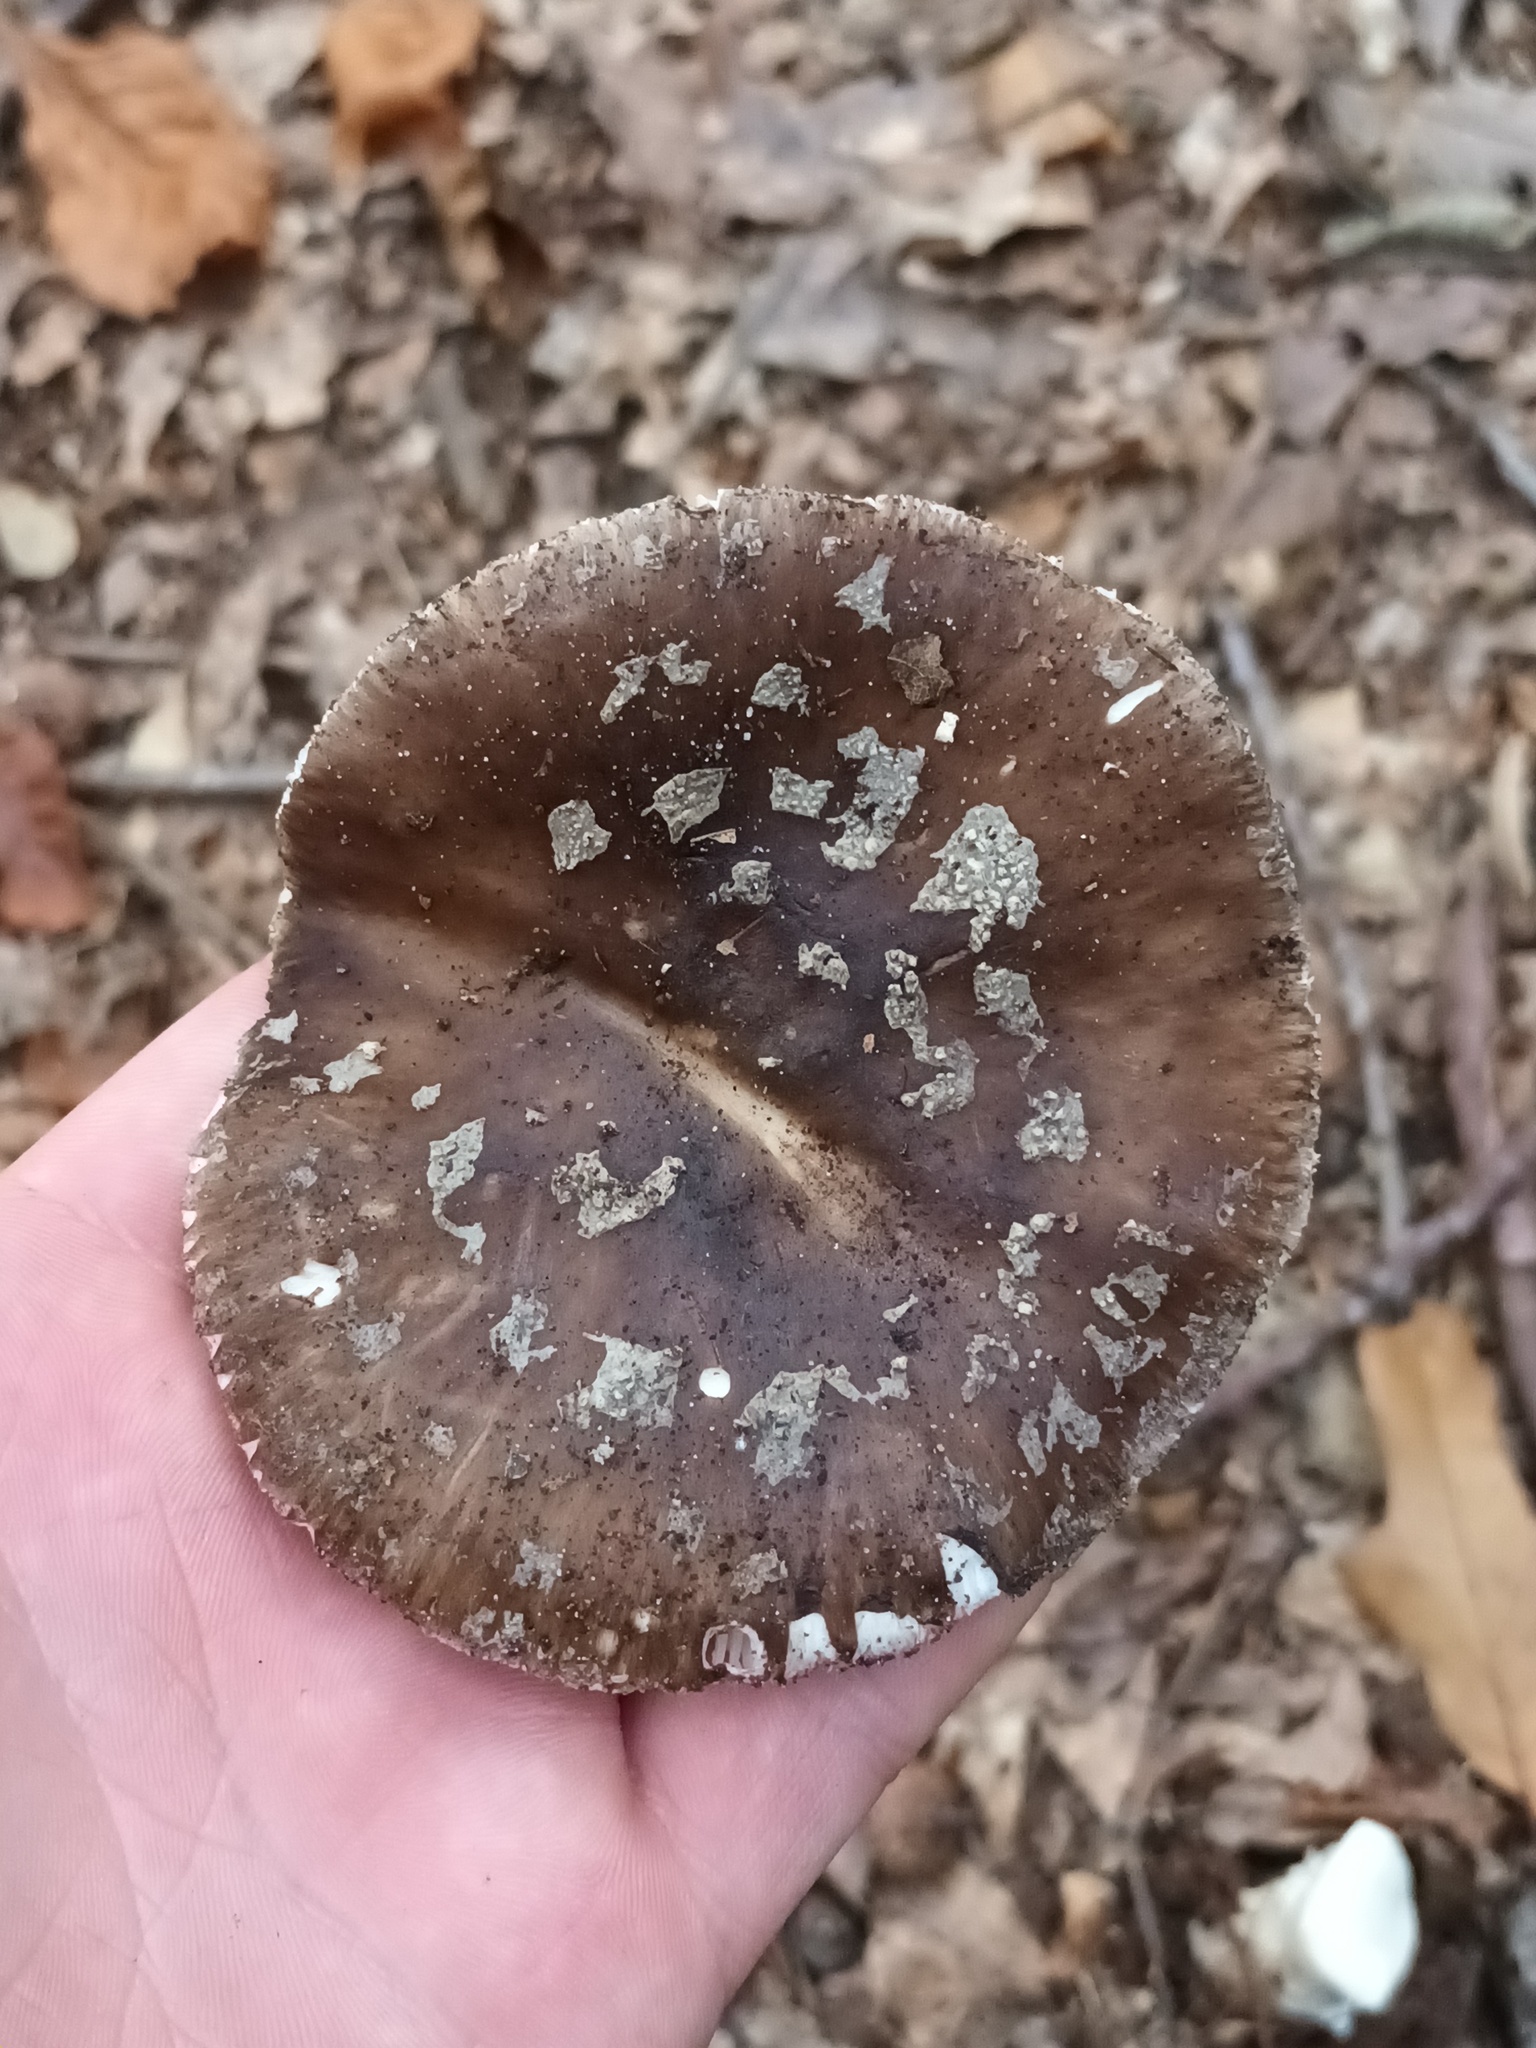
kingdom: Fungi
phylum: Basidiomycota
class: Agaricomycetes
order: Agaricales
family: Amanitaceae
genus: Amanita
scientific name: Amanita excelsa
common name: European false blusher
